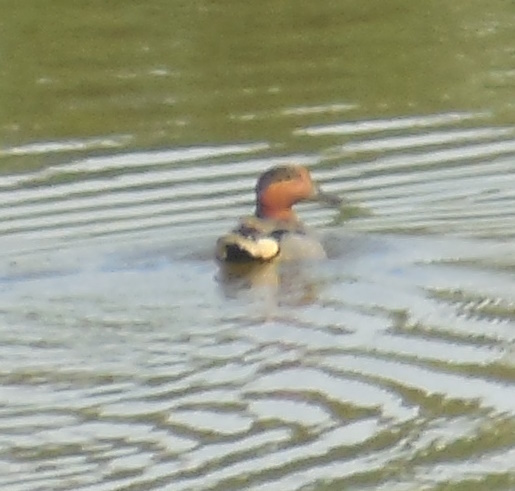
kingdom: Animalia
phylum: Chordata
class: Aves
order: Anseriformes
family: Anatidae
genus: Anas
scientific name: Anas crecca
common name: Eurasian teal
